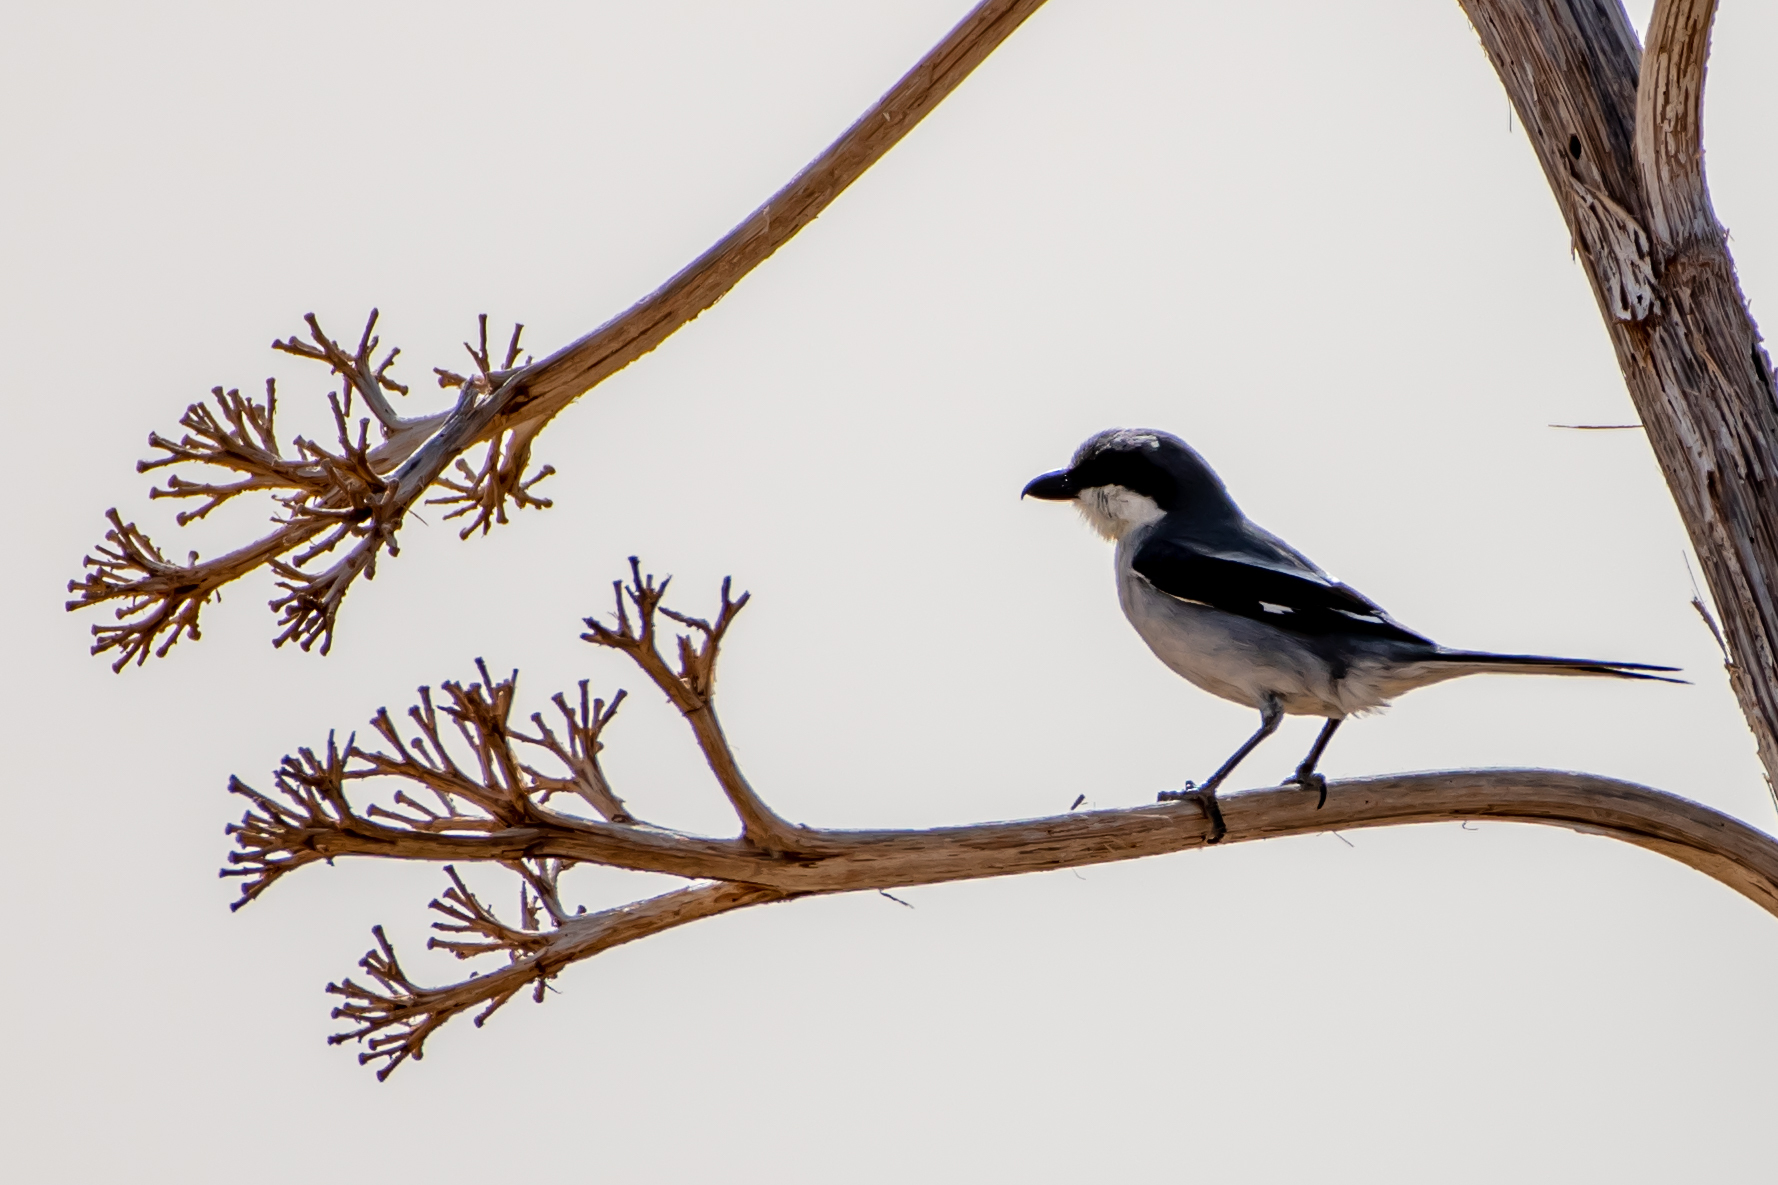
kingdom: Animalia
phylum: Chordata
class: Aves
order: Passeriformes
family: Laniidae
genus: Lanius
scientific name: Lanius excubitor
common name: Great grey shrike
